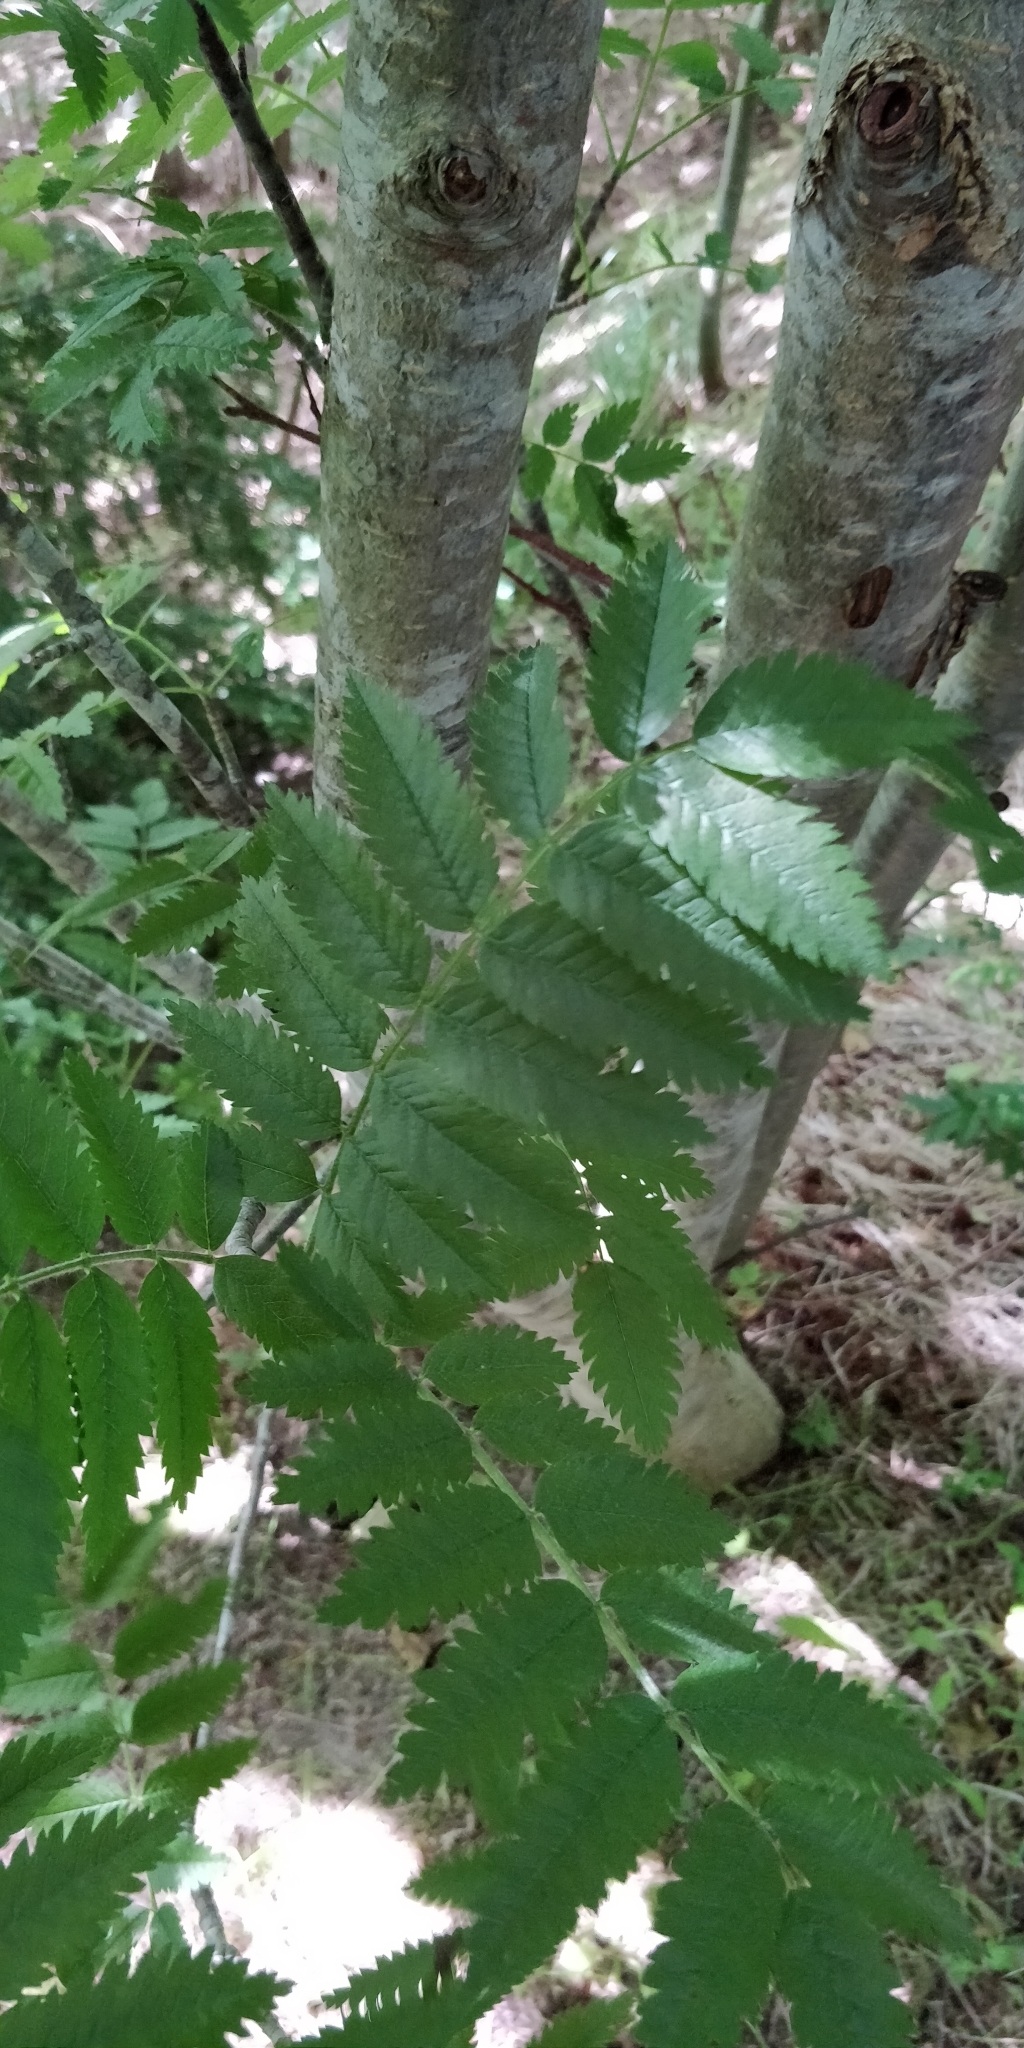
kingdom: Plantae
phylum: Tracheophyta
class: Magnoliopsida
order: Rosales
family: Rosaceae
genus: Sorbus
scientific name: Sorbus aucuparia
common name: Rowan
